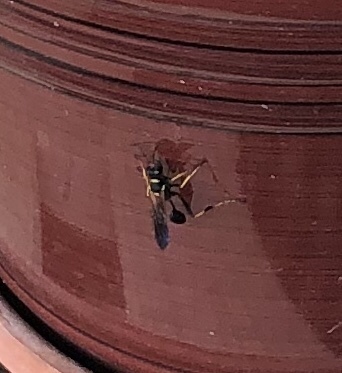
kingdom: Animalia
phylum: Arthropoda
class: Insecta
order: Hymenoptera
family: Sphecidae
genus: Sceliphron
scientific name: Sceliphron caementarium
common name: Mud dauber
